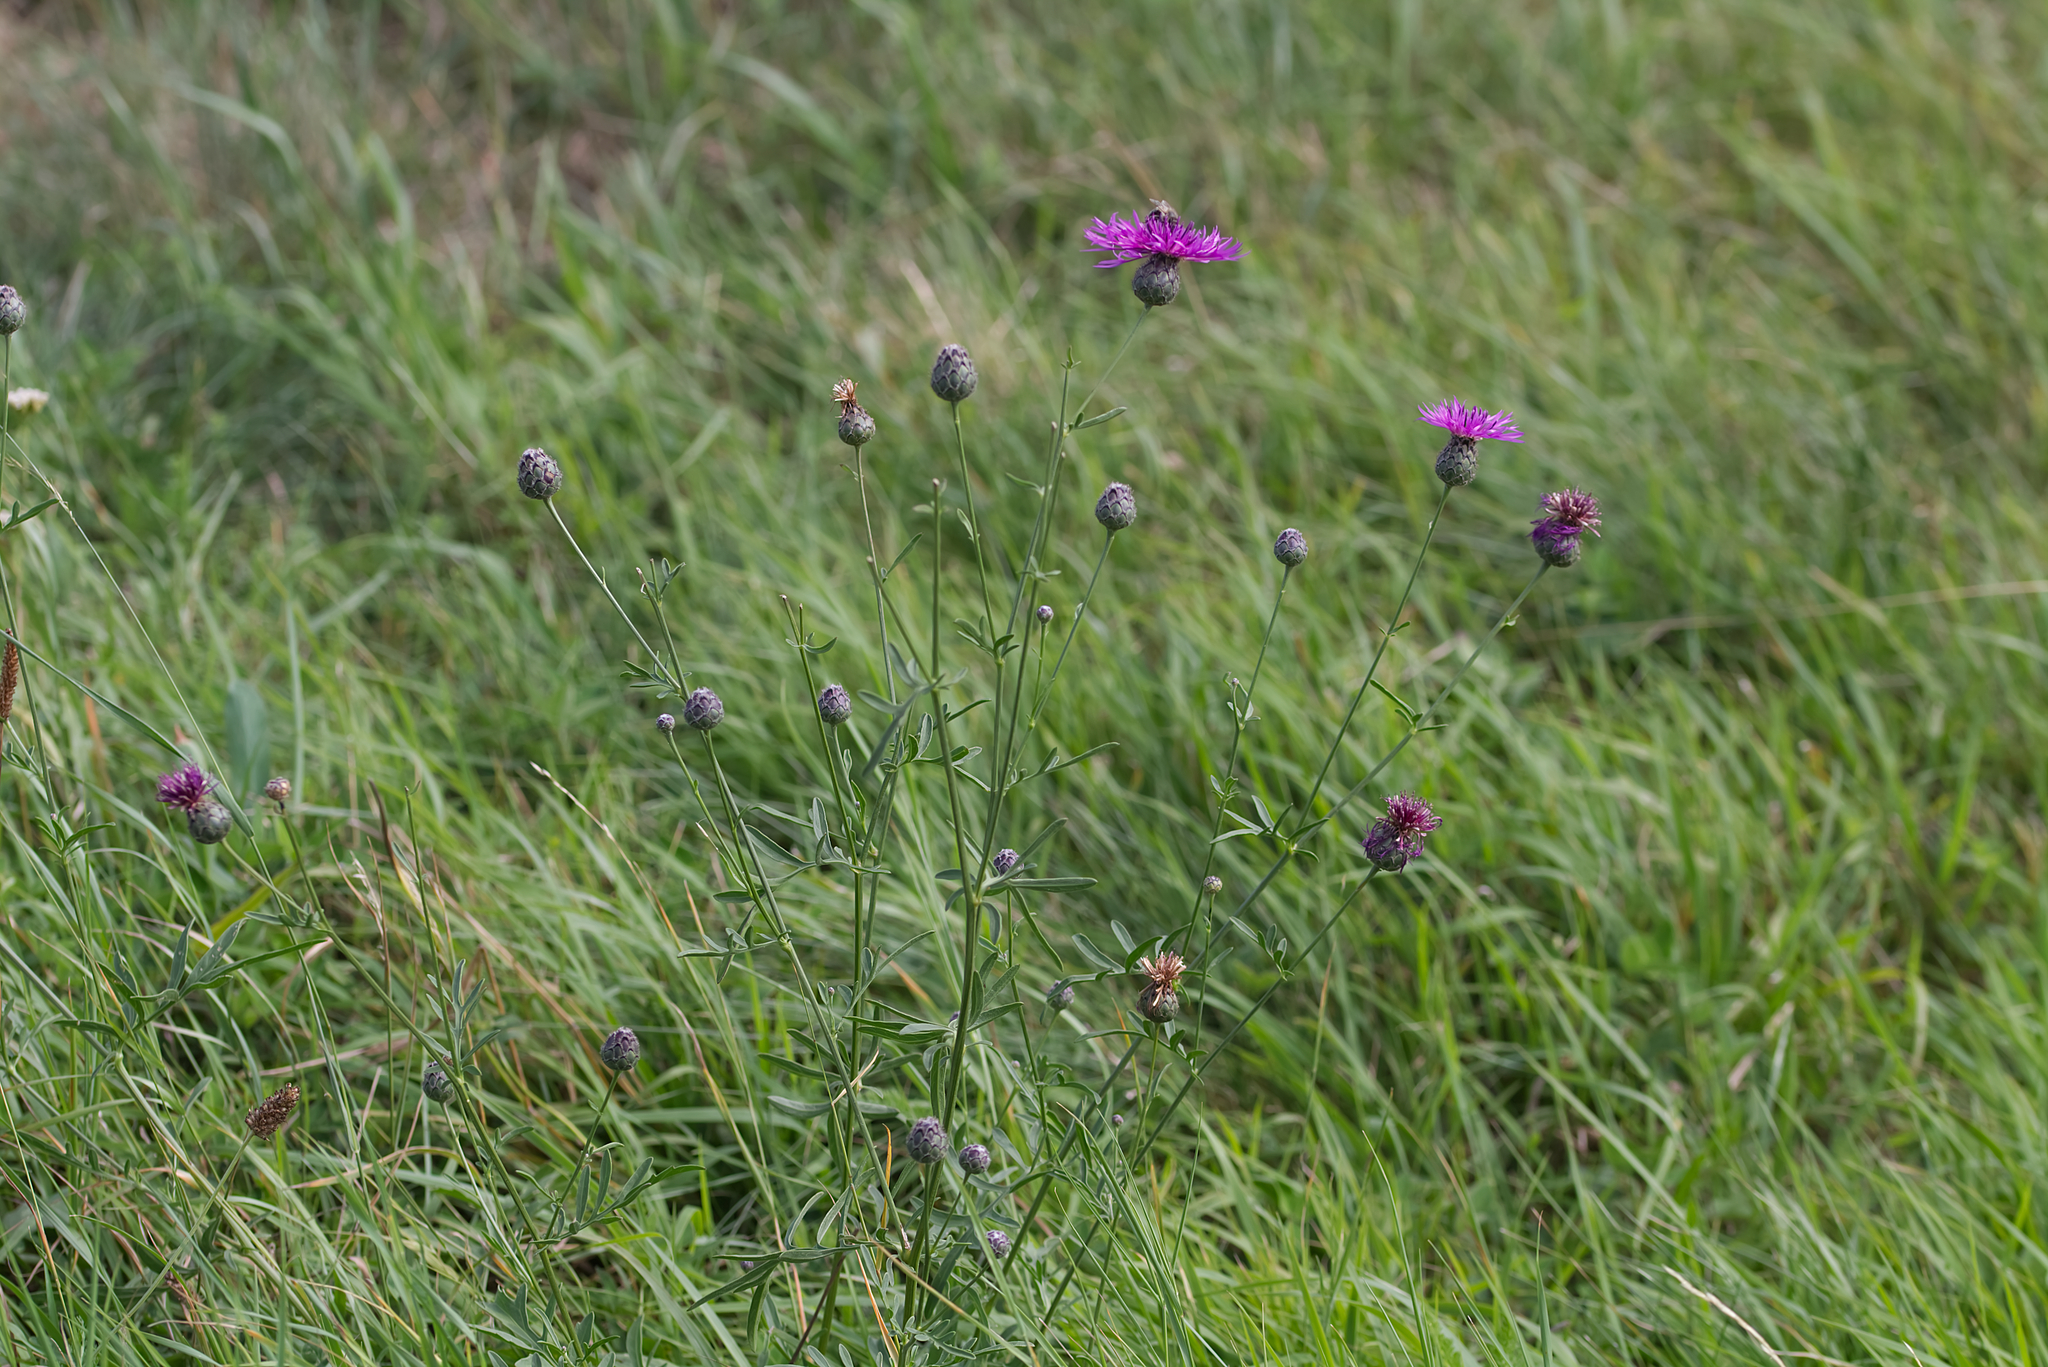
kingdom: Plantae
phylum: Tracheophyta
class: Magnoliopsida
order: Asterales
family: Asteraceae
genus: Centaurea
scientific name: Centaurea scabiosa
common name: Greater knapweed
